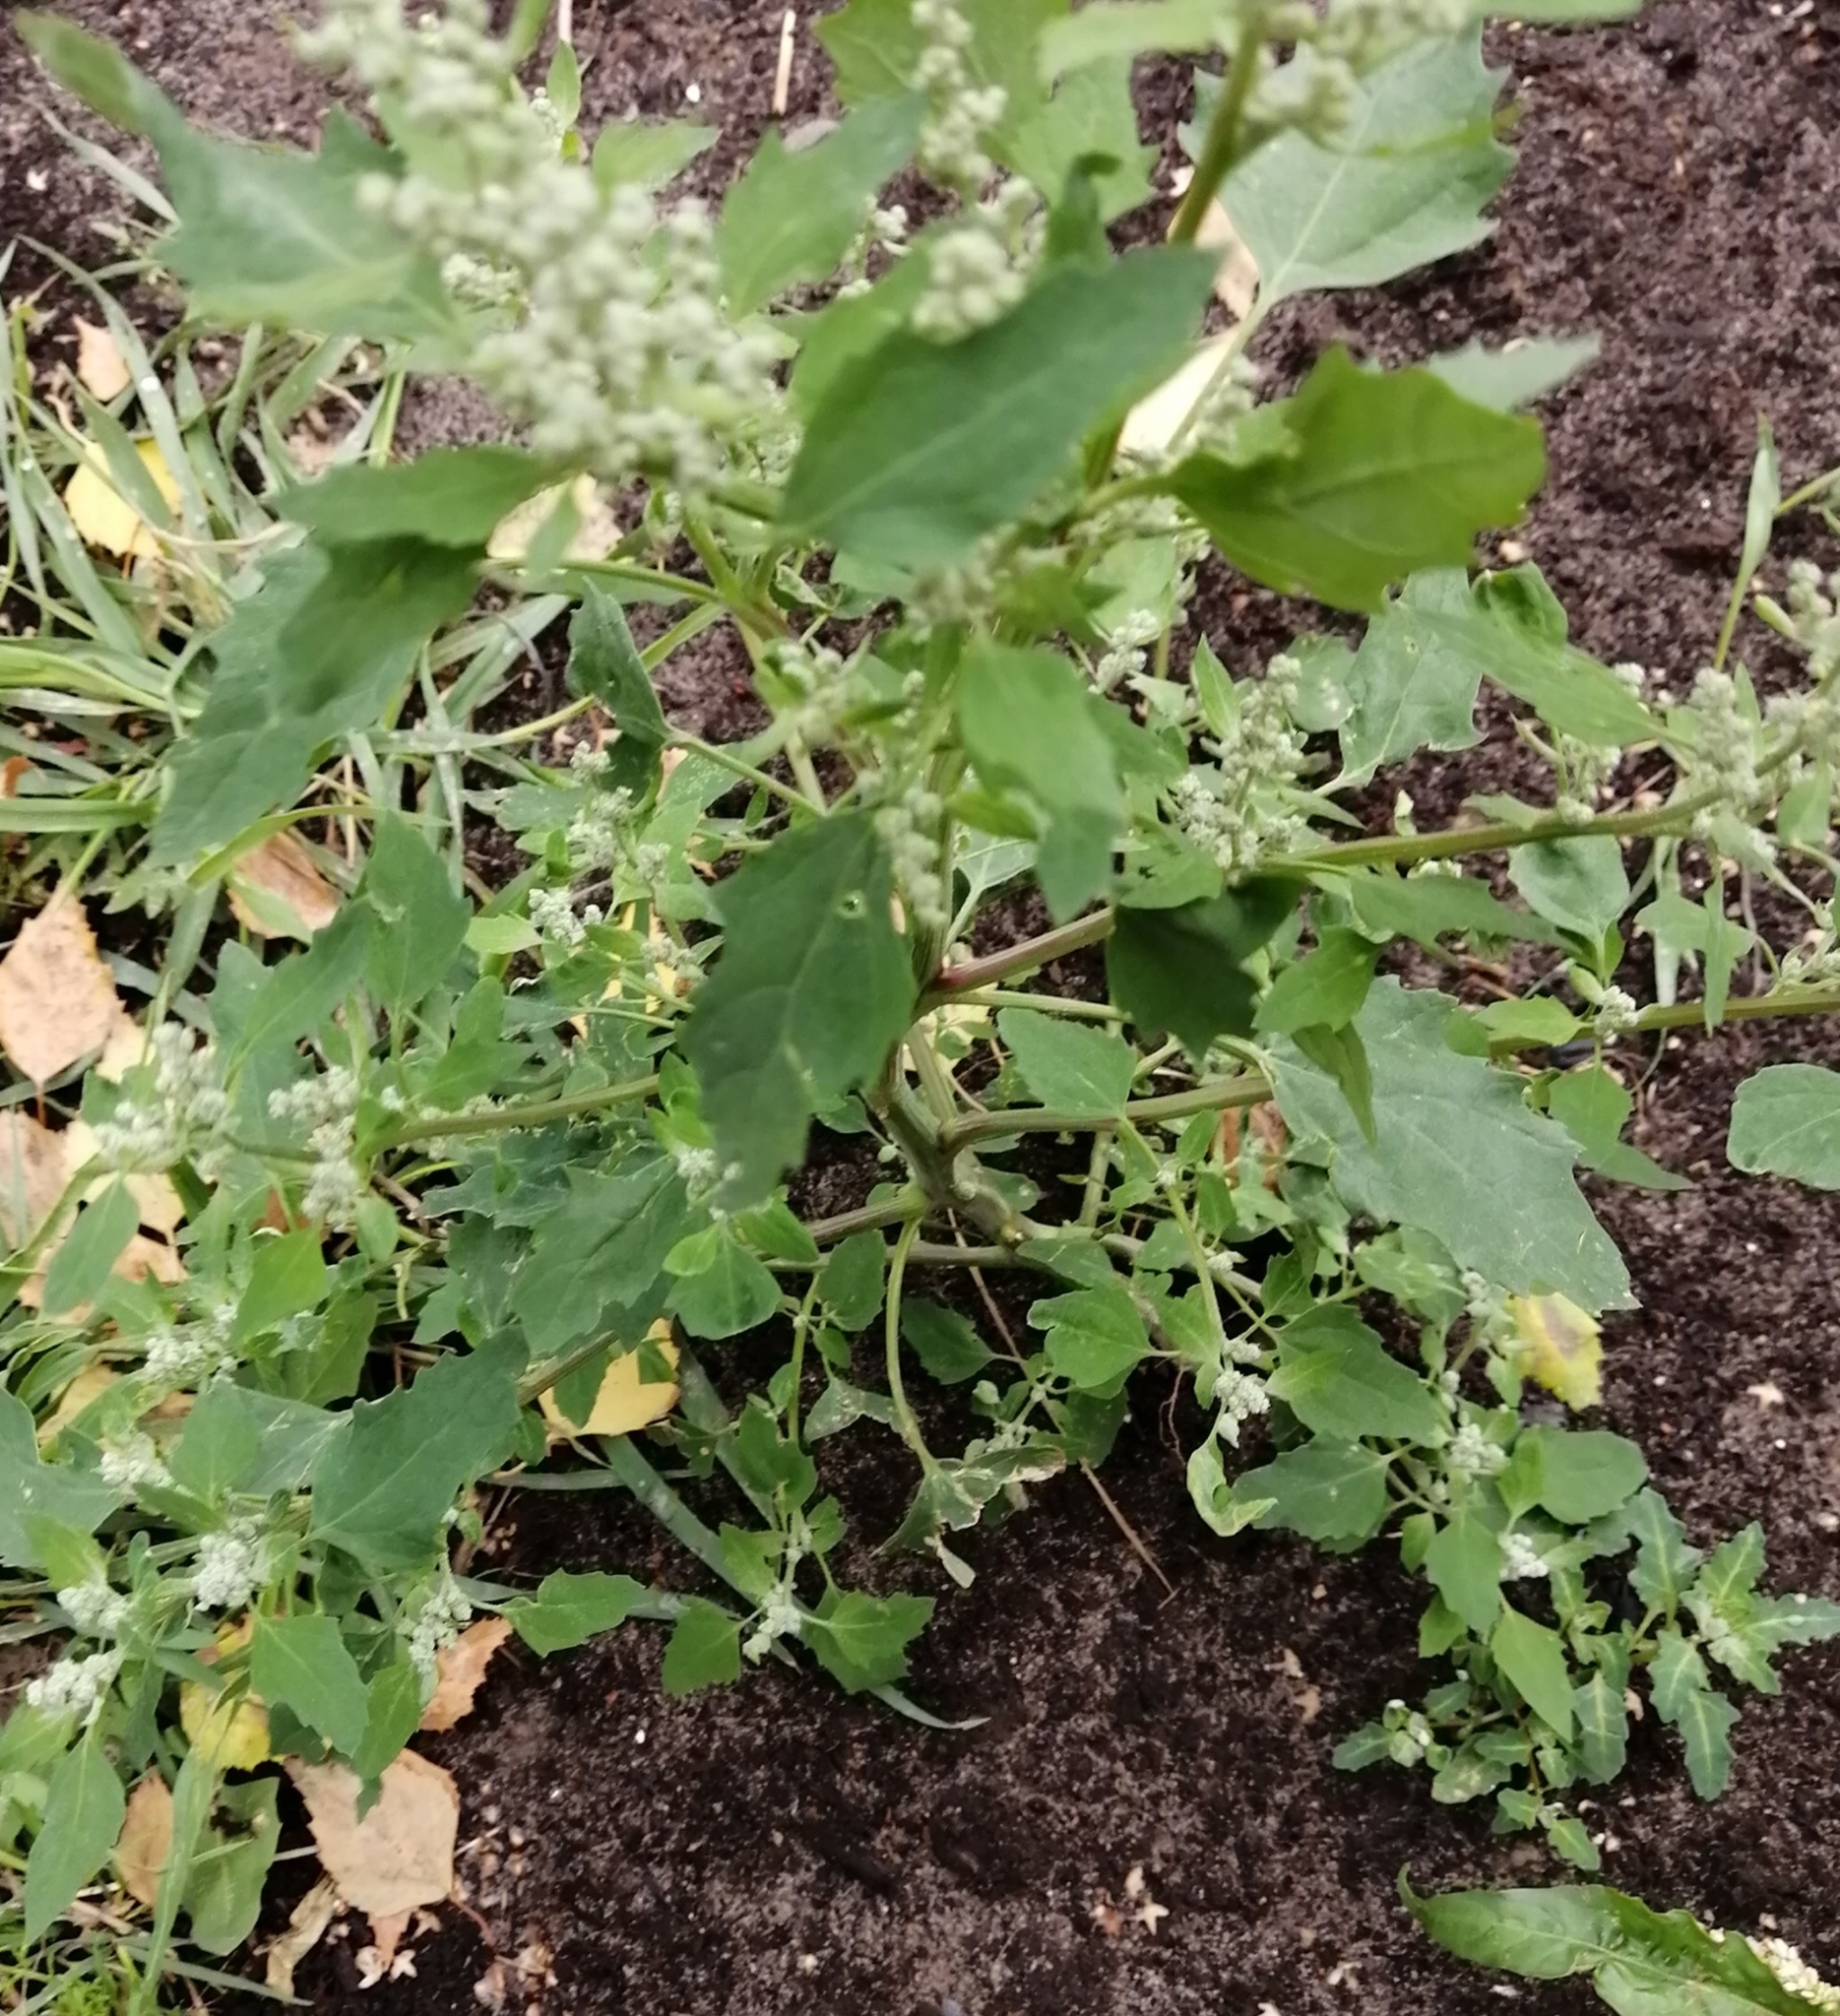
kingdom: Plantae
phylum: Tracheophyta
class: Magnoliopsida
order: Caryophyllales
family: Amaranthaceae
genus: Chenopodium
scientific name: Chenopodium album
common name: Fat-hen
